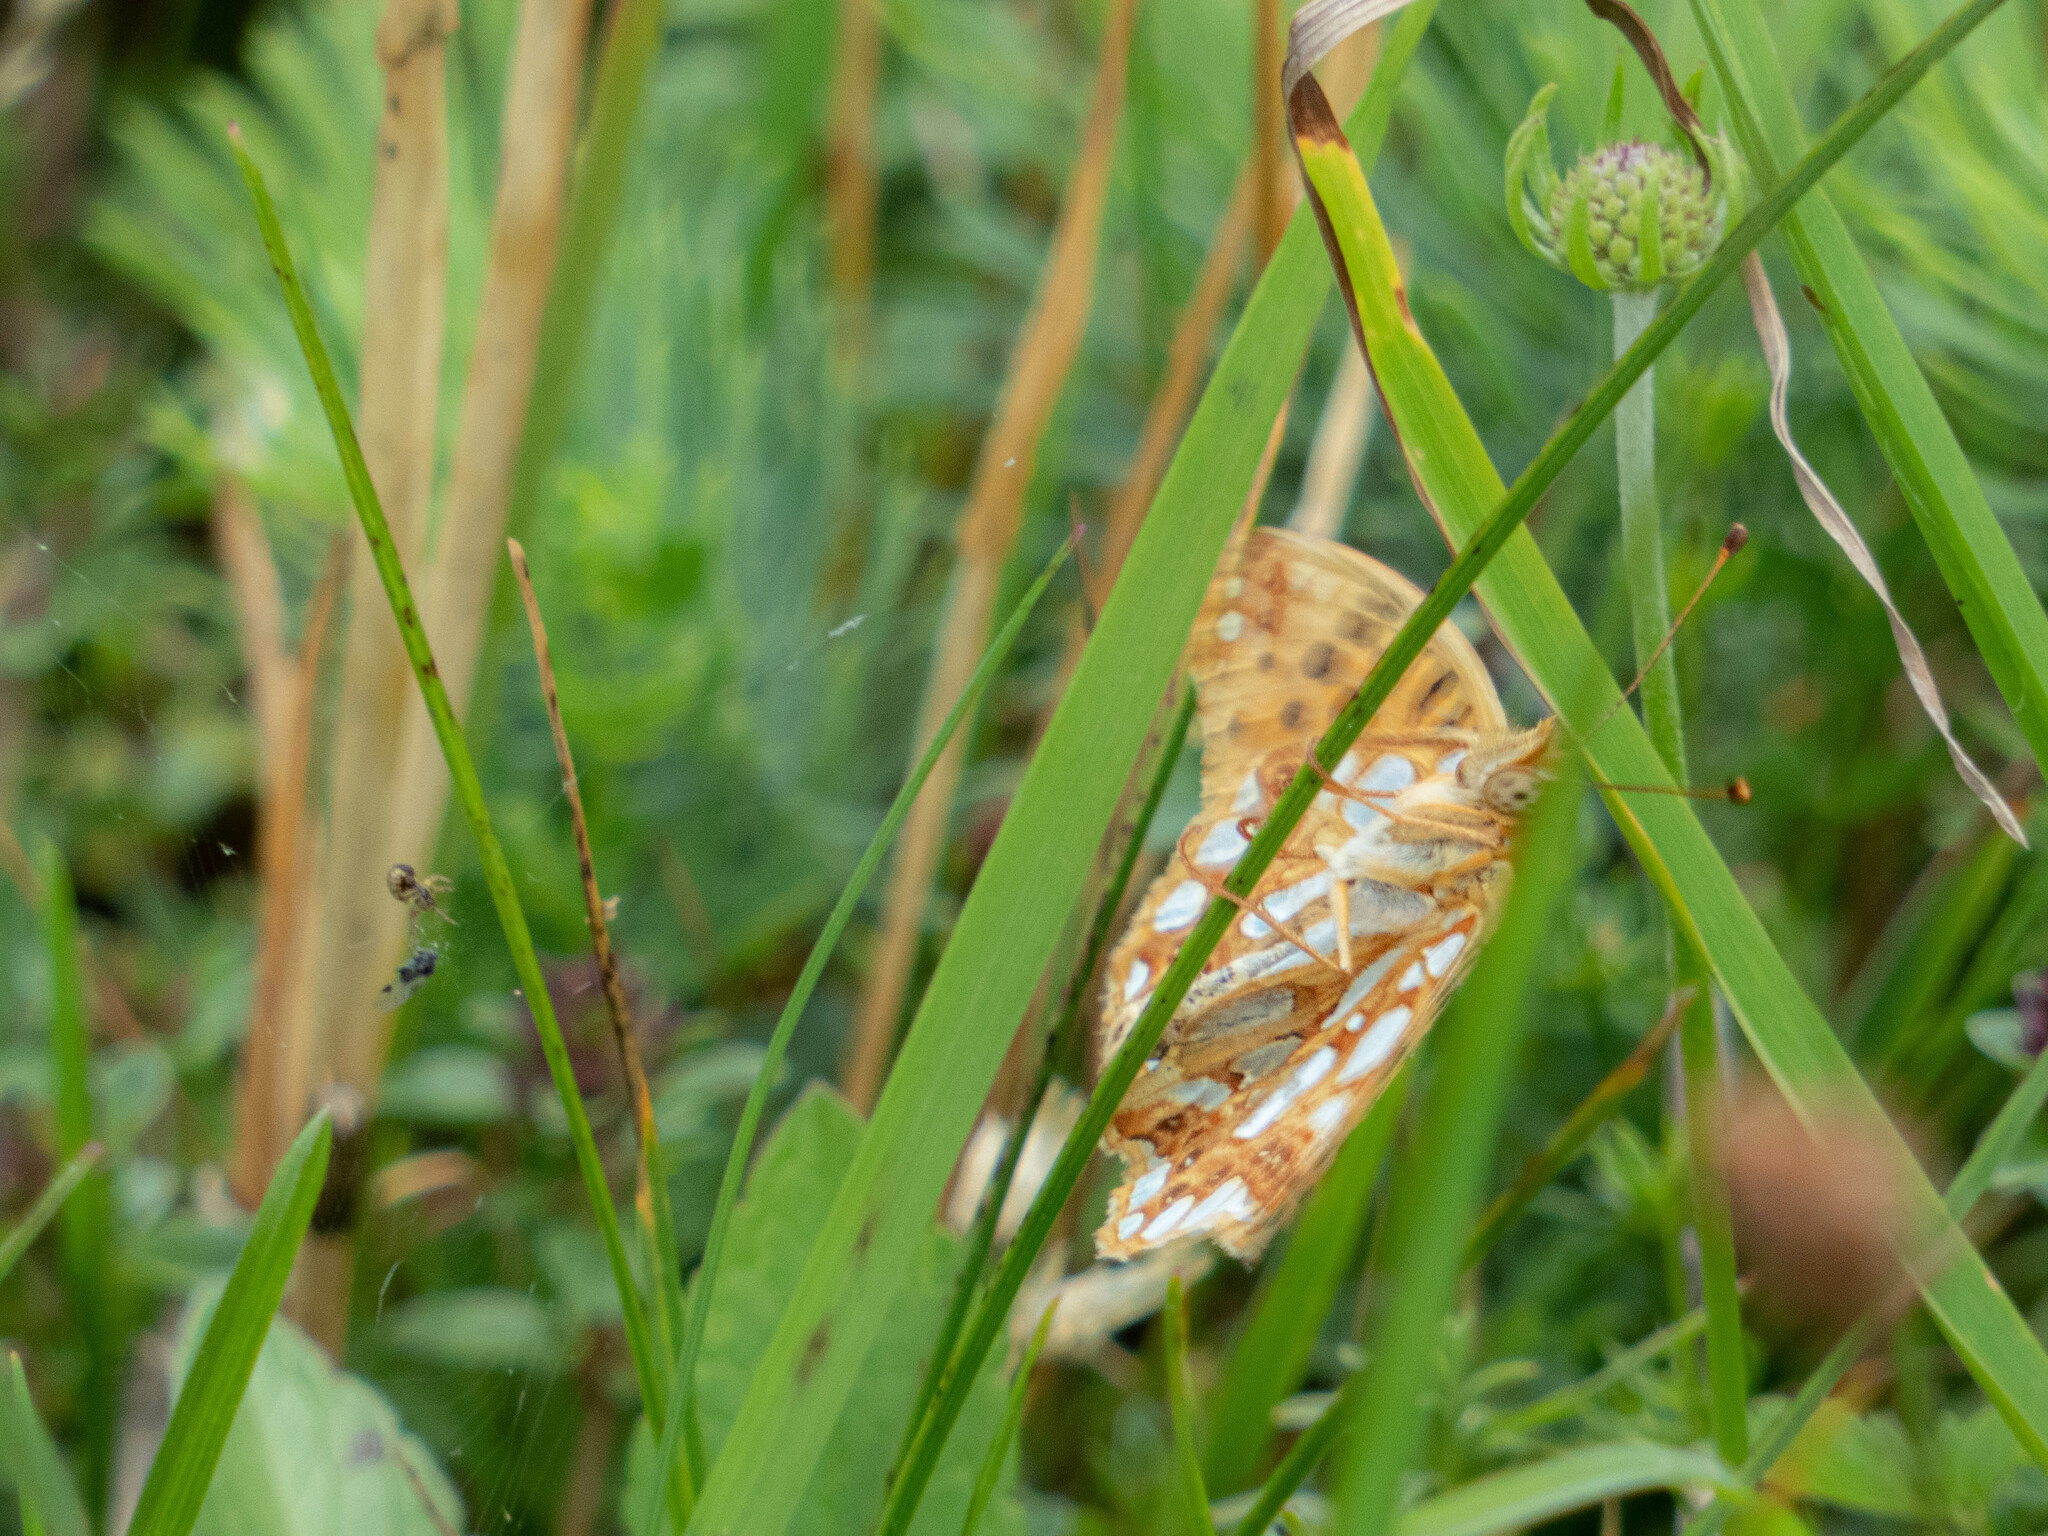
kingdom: Animalia
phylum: Arthropoda
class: Insecta
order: Lepidoptera
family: Nymphalidae
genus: Issoria
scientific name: Issoria lathonia
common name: Queen of spain fritillary
